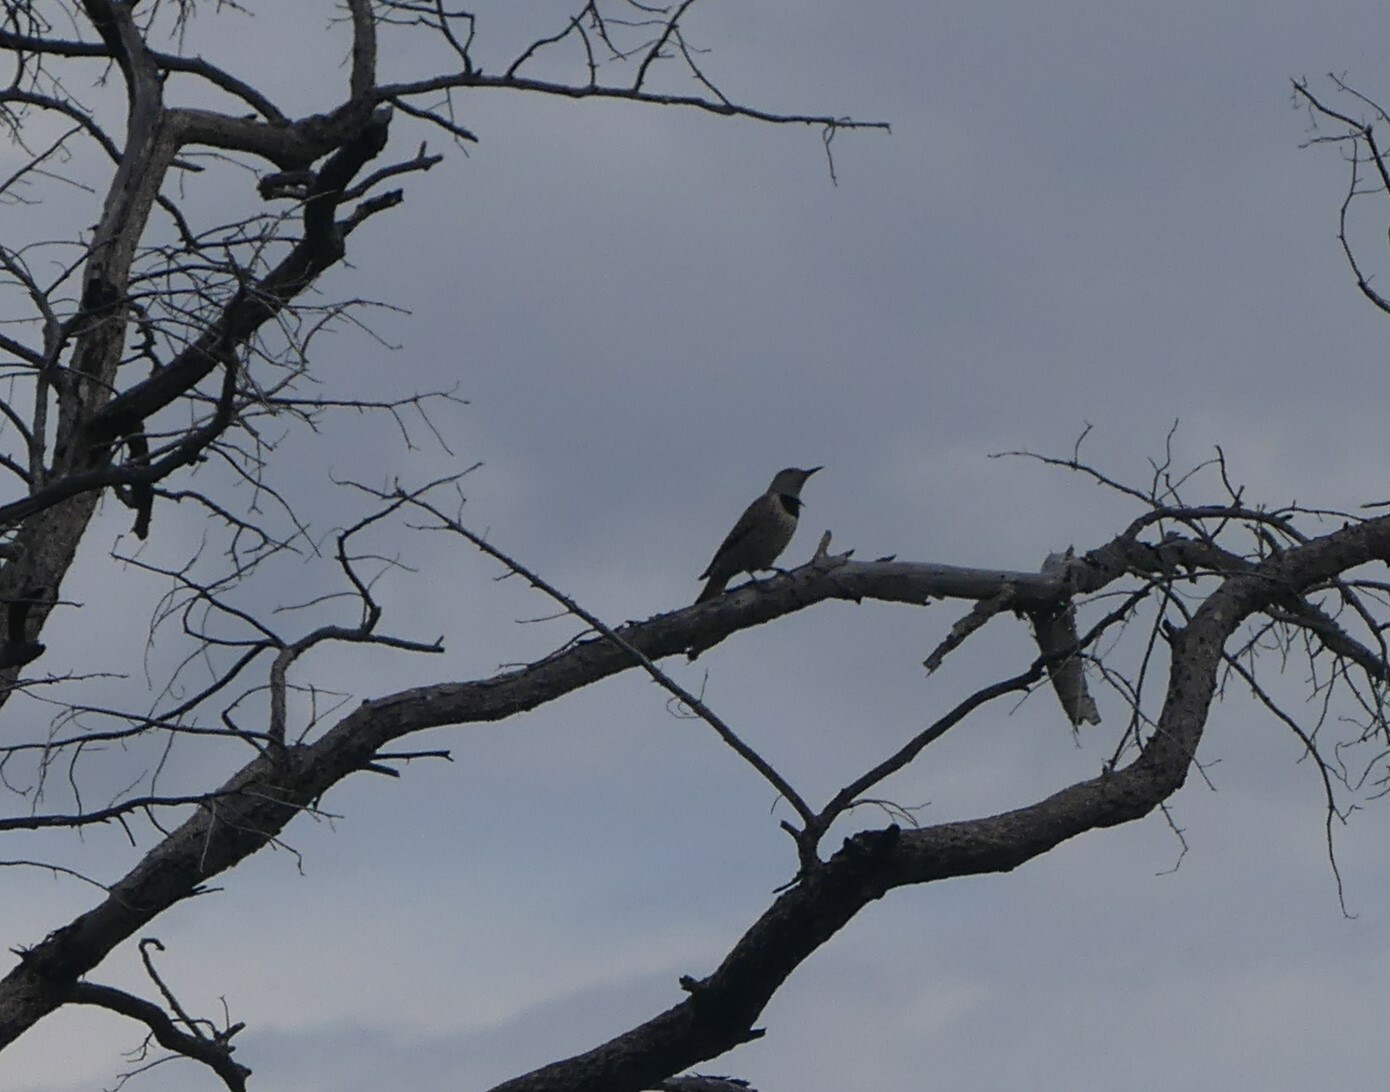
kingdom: Animalia
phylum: Chordata
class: Aves
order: Piciformes
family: Picidae
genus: Colaptes
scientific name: Colaptes auratus
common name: Northern flicker
